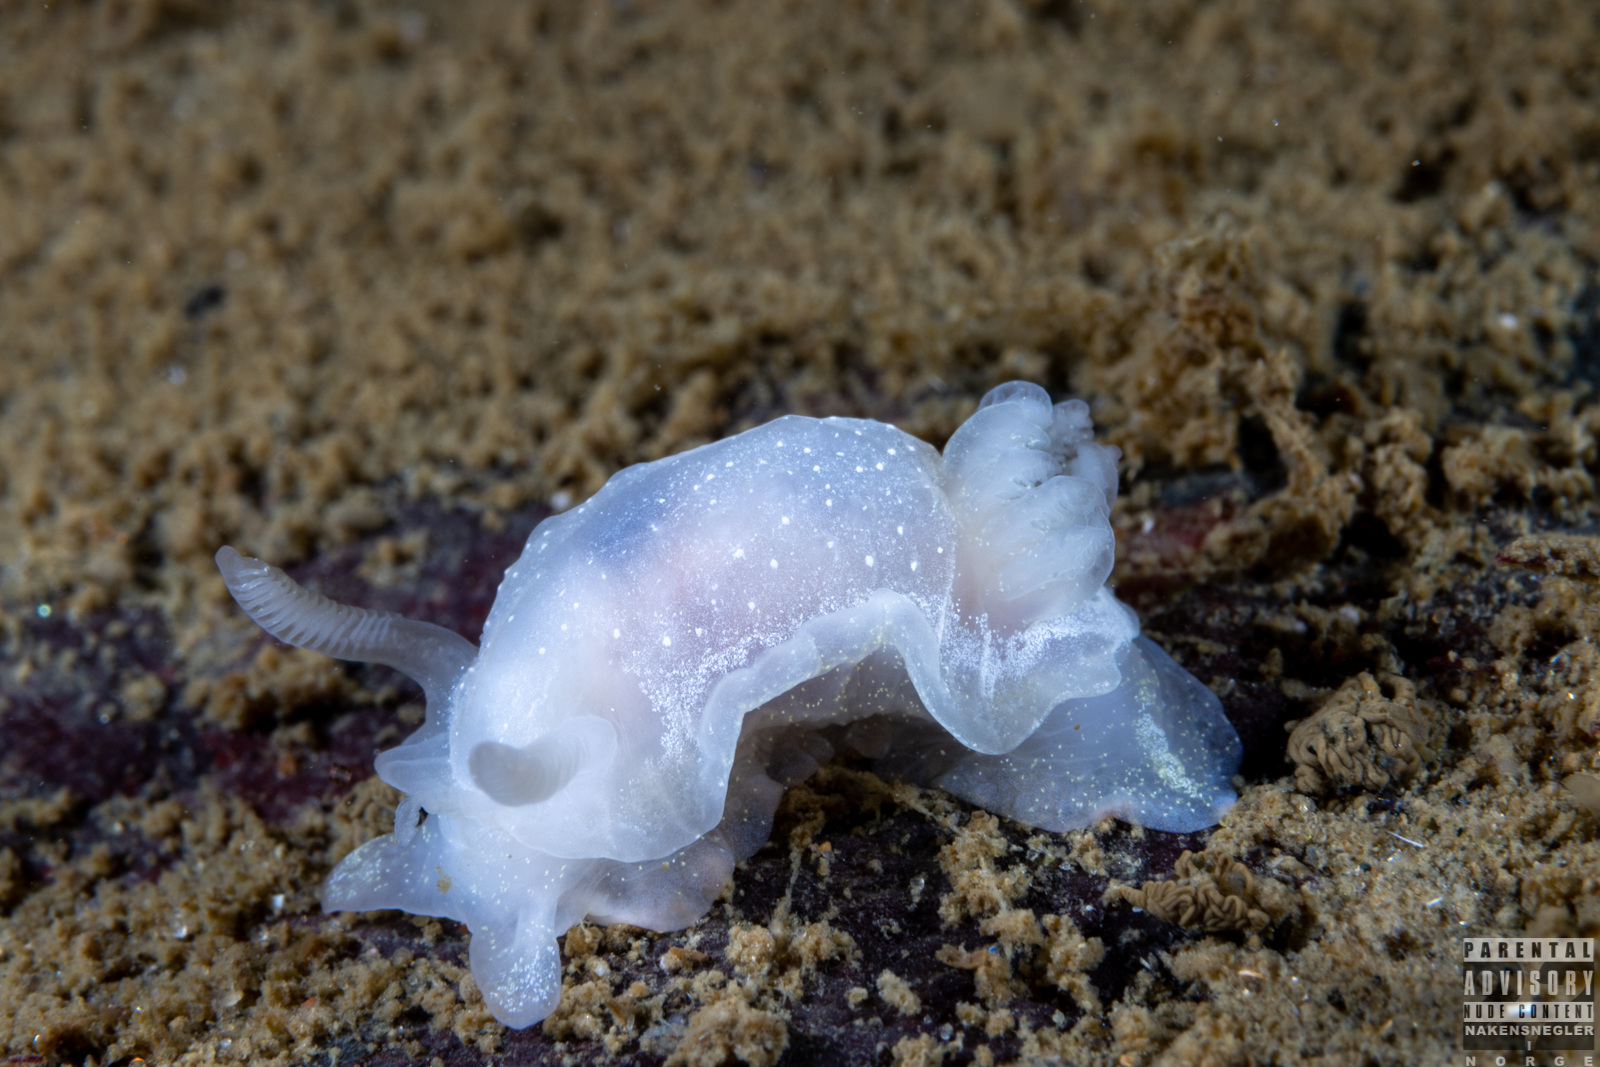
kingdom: Animalia
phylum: Mollusca
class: Gastropoda
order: Nudibranchia
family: Goniodorididae
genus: Okenia
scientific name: Okenia
